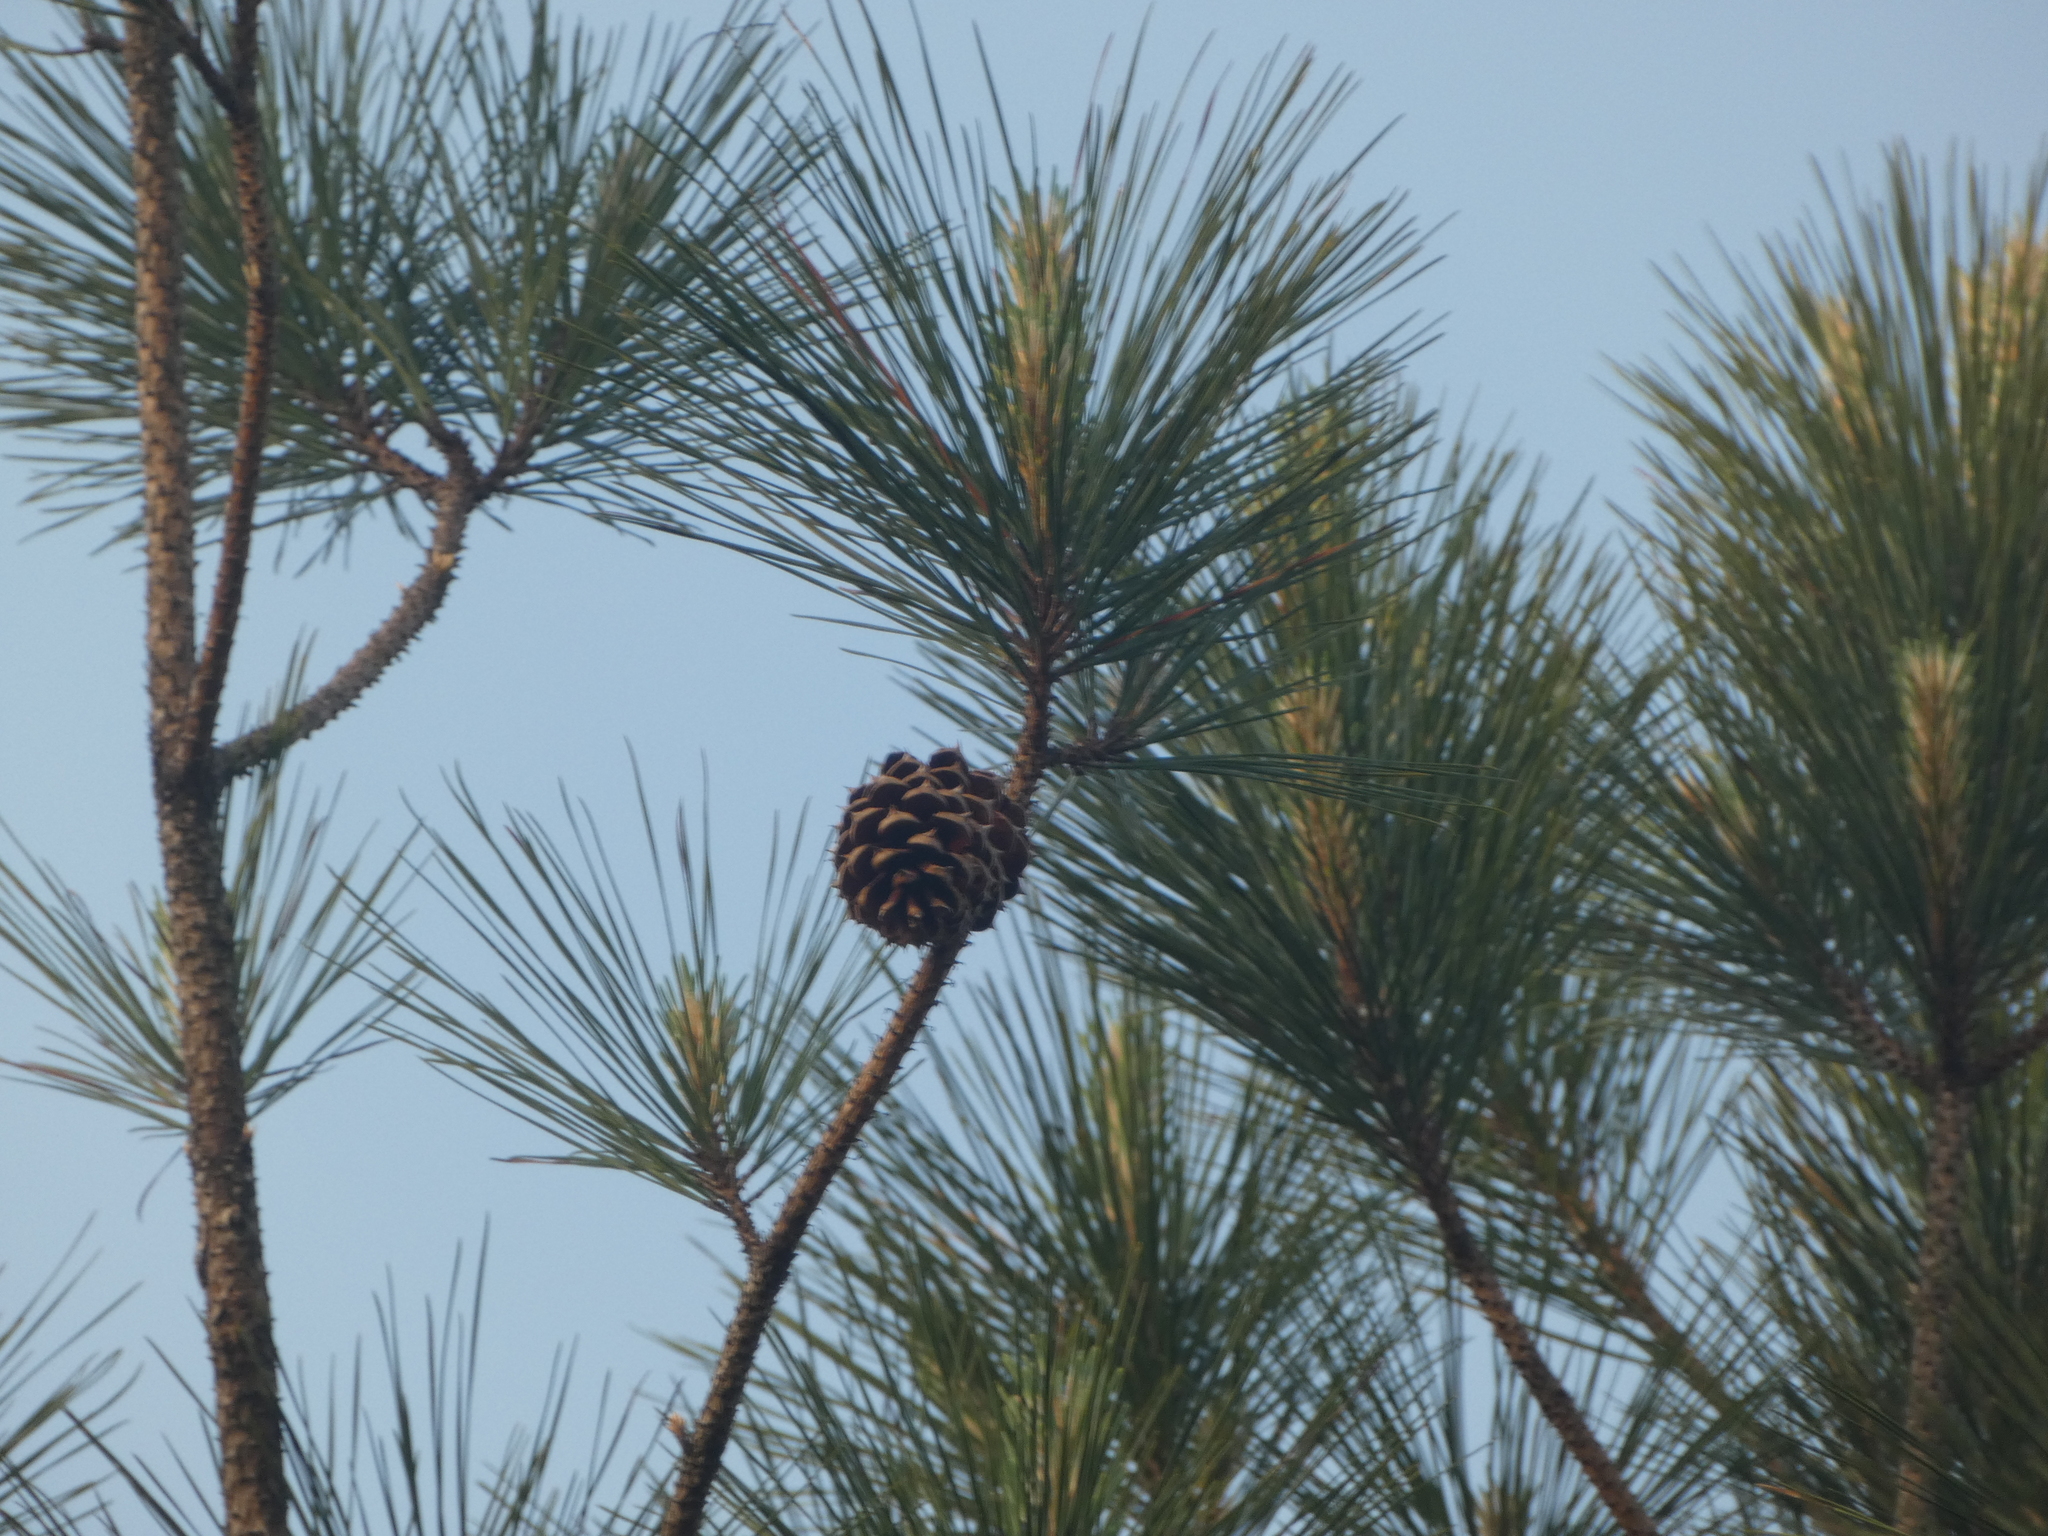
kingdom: Plantae
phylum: Tracheophyta
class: Pinopsida
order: Pinales
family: Pinaceae
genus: Pinus
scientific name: Pinus serotina
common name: Marsh pine
